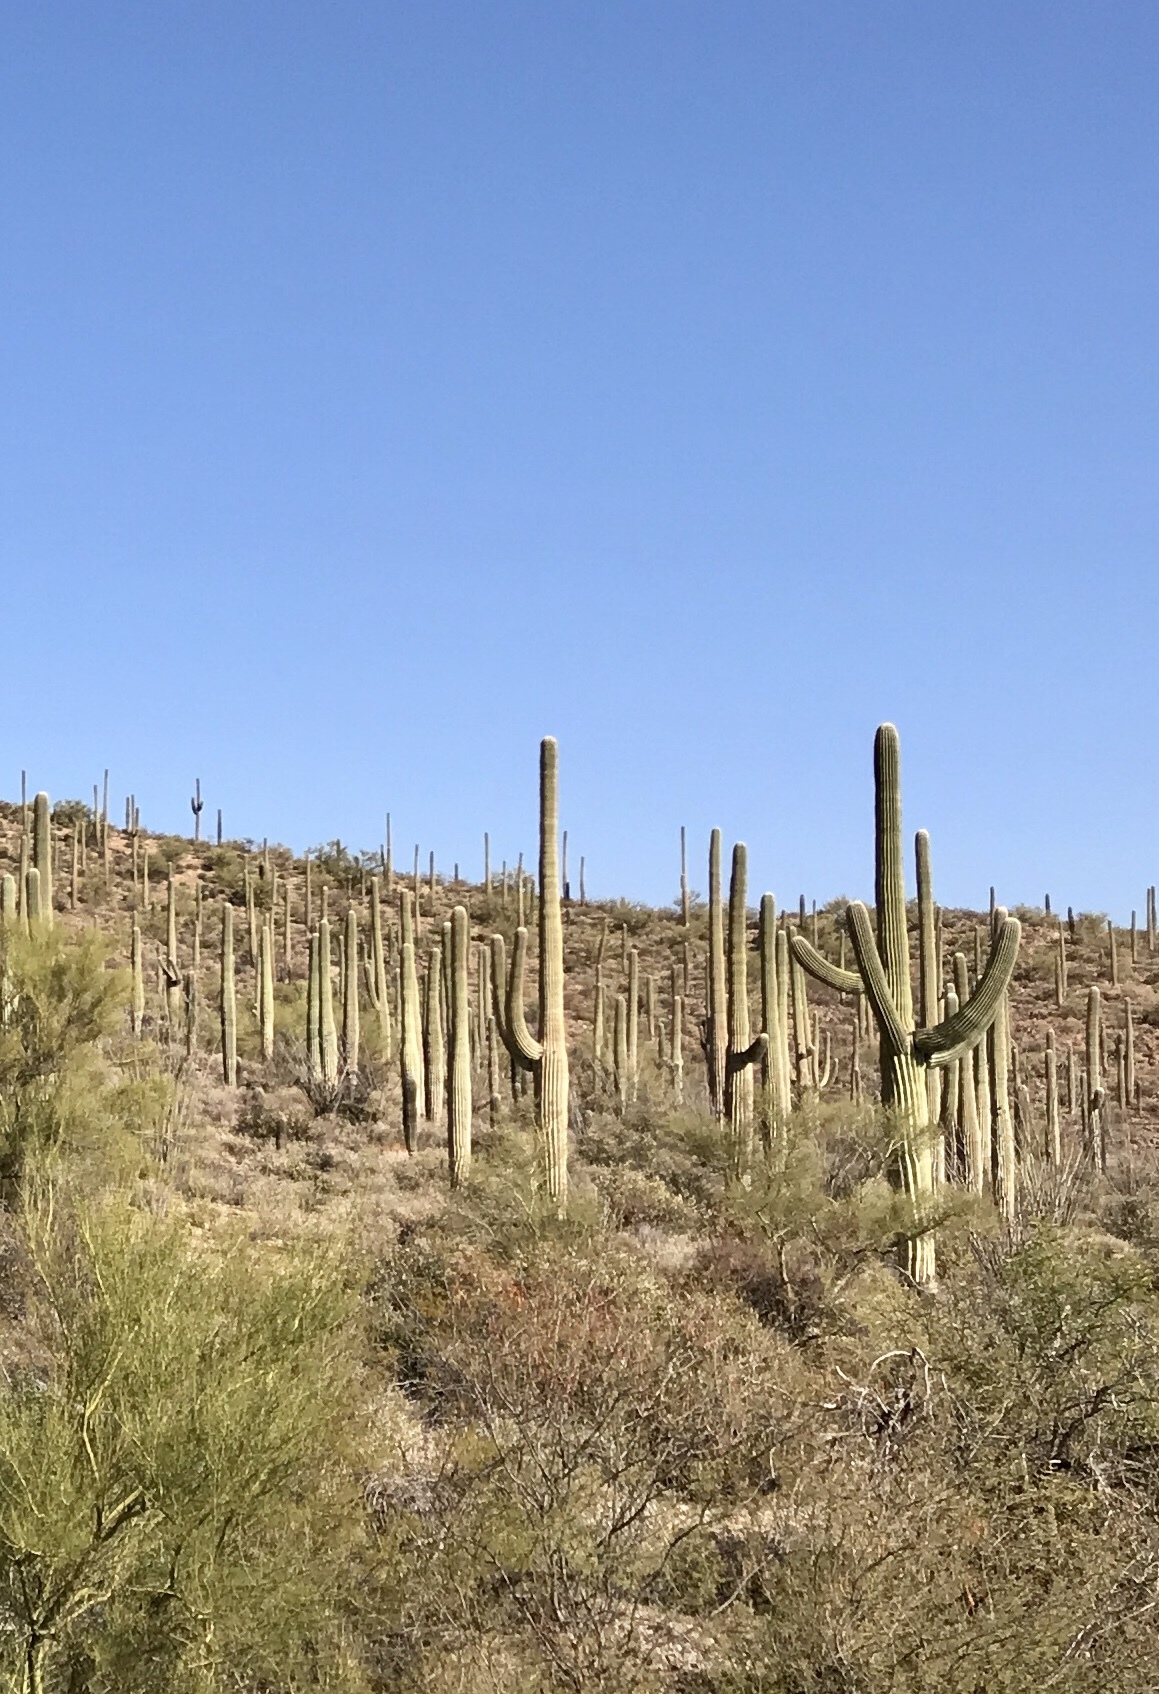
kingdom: Plantae
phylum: Tracheophyta
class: Magnoliopsida
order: Caryophyllales
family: Cactaceae
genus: Carnegiea
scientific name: Carnegiea gigantea
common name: Saguaro
